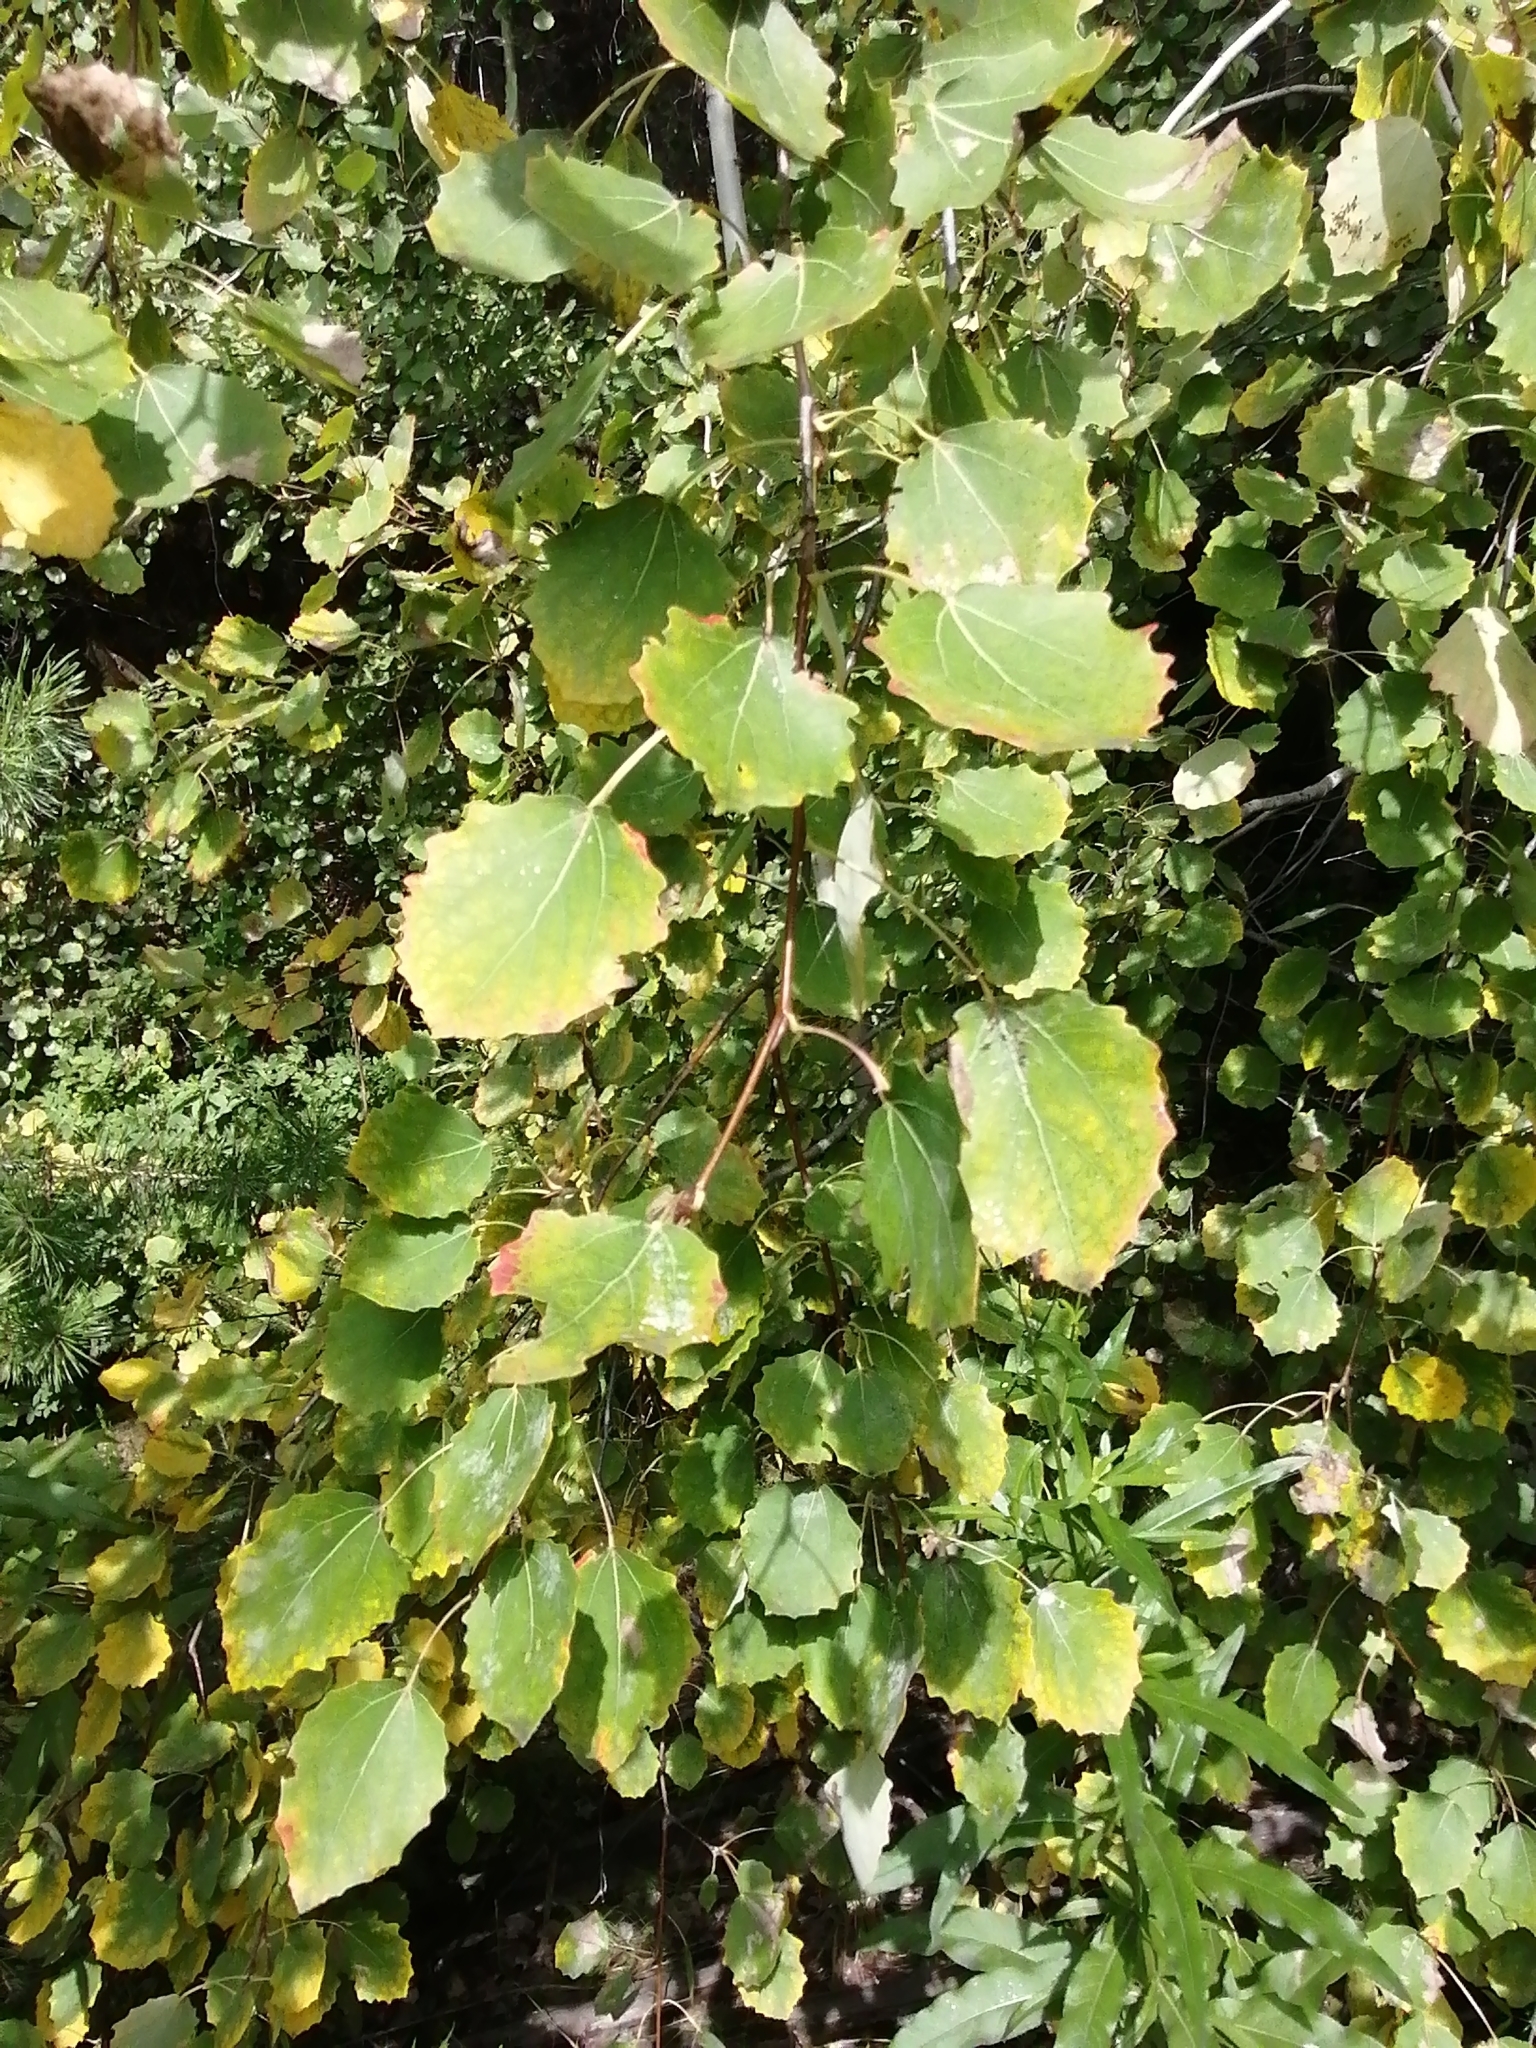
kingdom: Plantae
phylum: Tracheophyta
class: Magnoliopsida
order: Malpighiales
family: Salicaceae
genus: Populus
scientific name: Populus tremula
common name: European aspen
